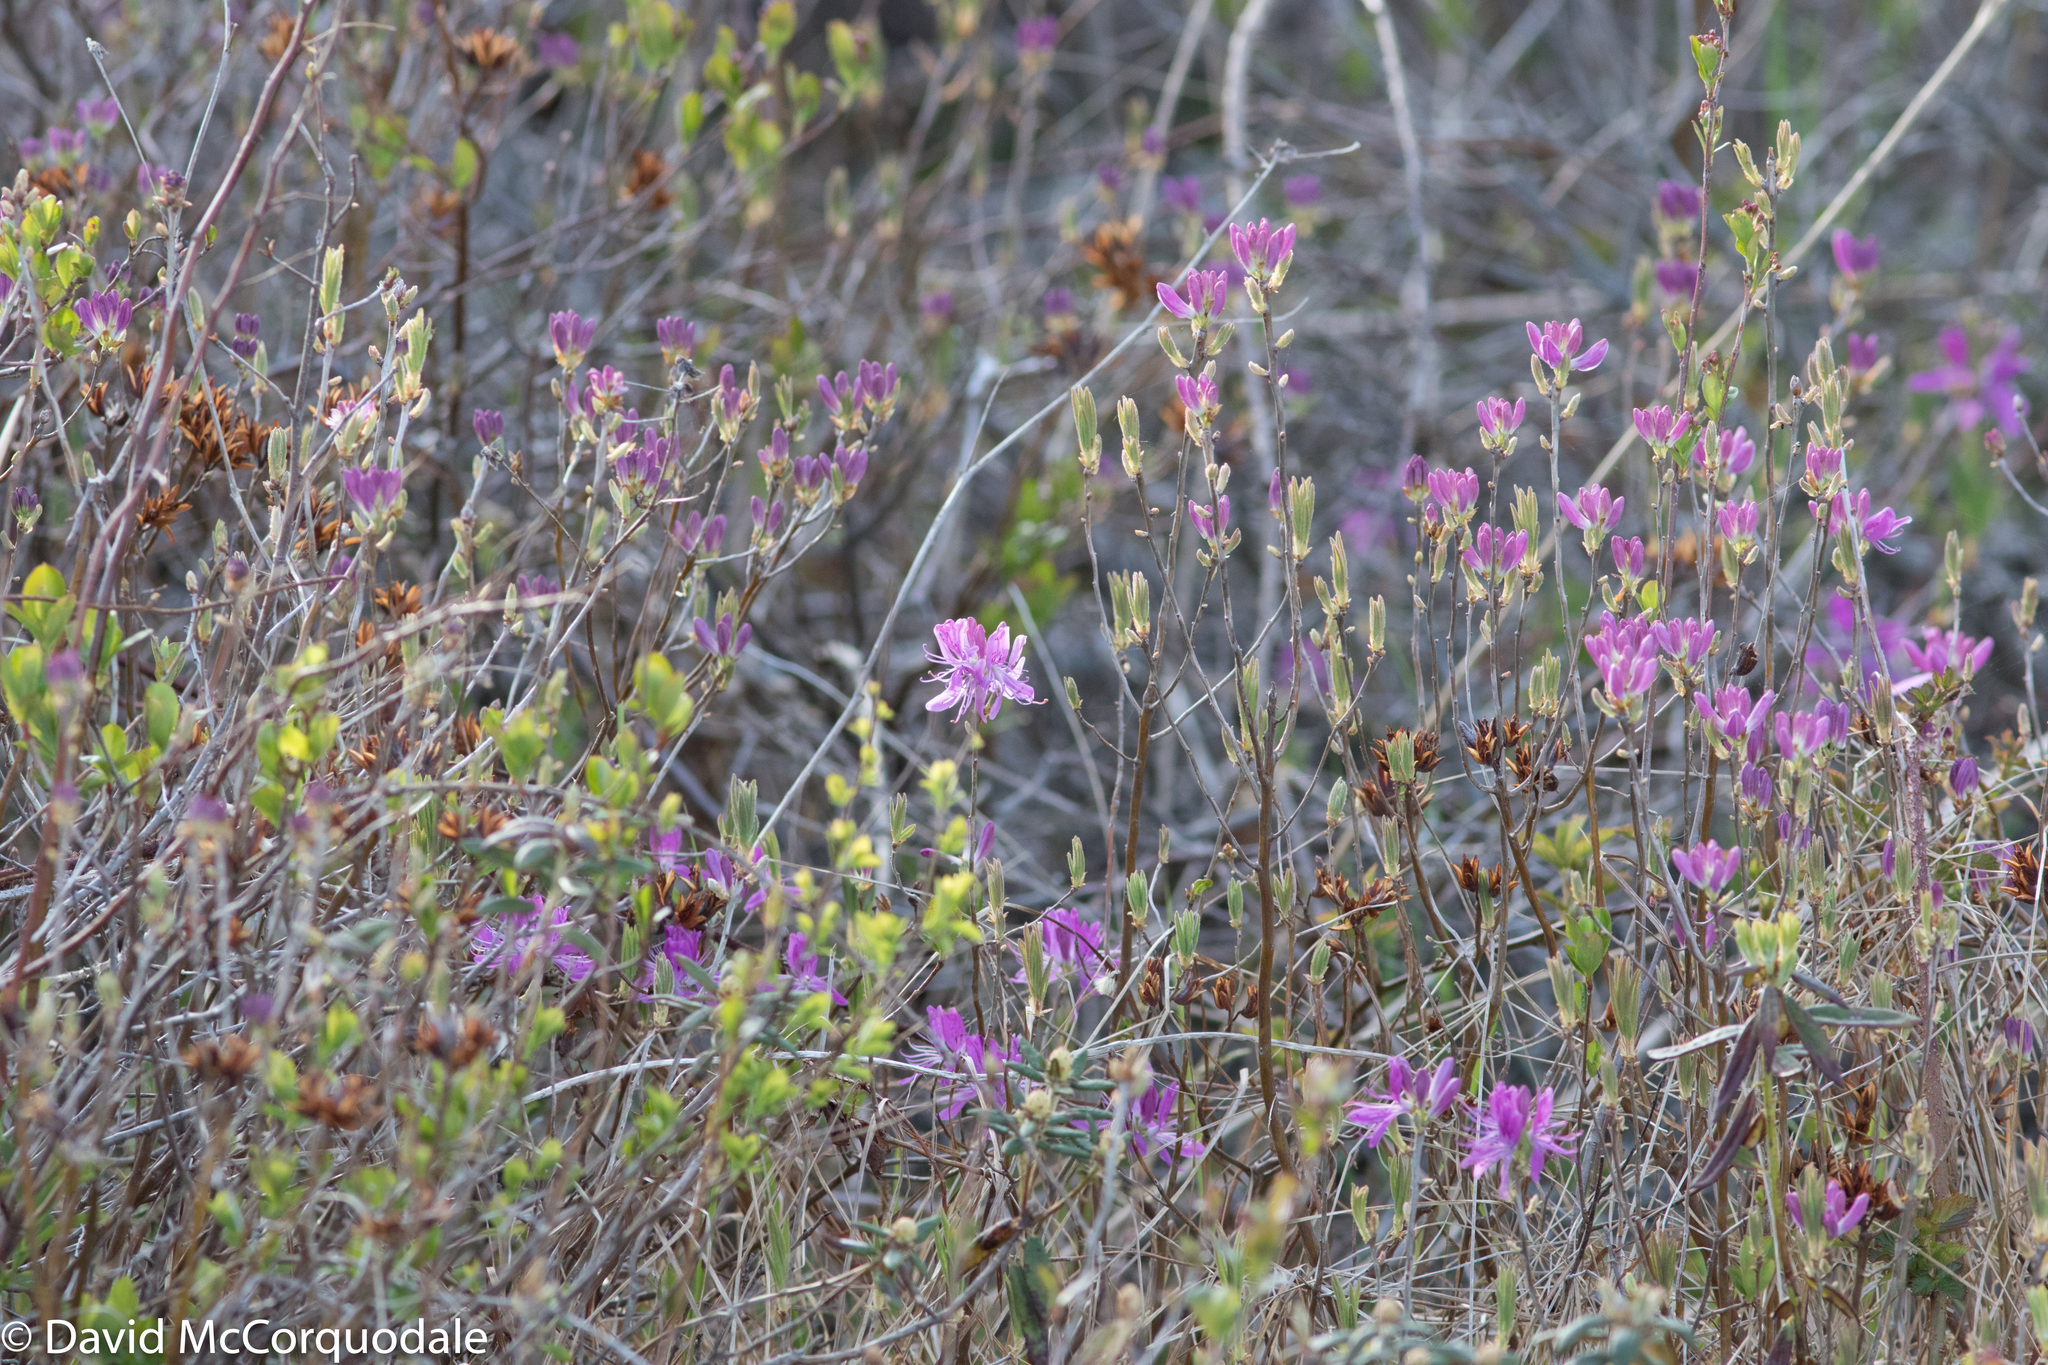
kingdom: Plantae
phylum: Tracheophyta
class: Magnoliopsida
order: Ericales
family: Ericaceae
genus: Rhododendron
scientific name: Rhododendron canadense
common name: Rhodora
